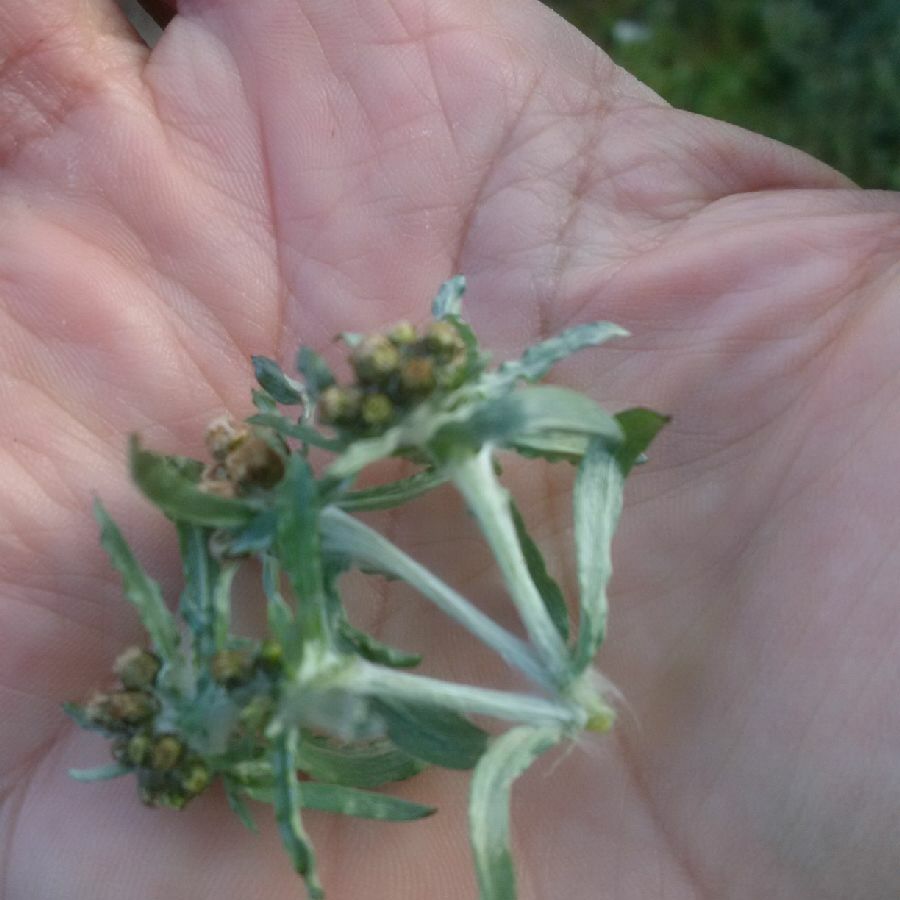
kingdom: Plantae
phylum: Tracheophyta
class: Magnoliopsida
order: Asterales
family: Asteraceae
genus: Gnaphalium
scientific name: Gnaphalium uliginosum
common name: Marsh cudweed
